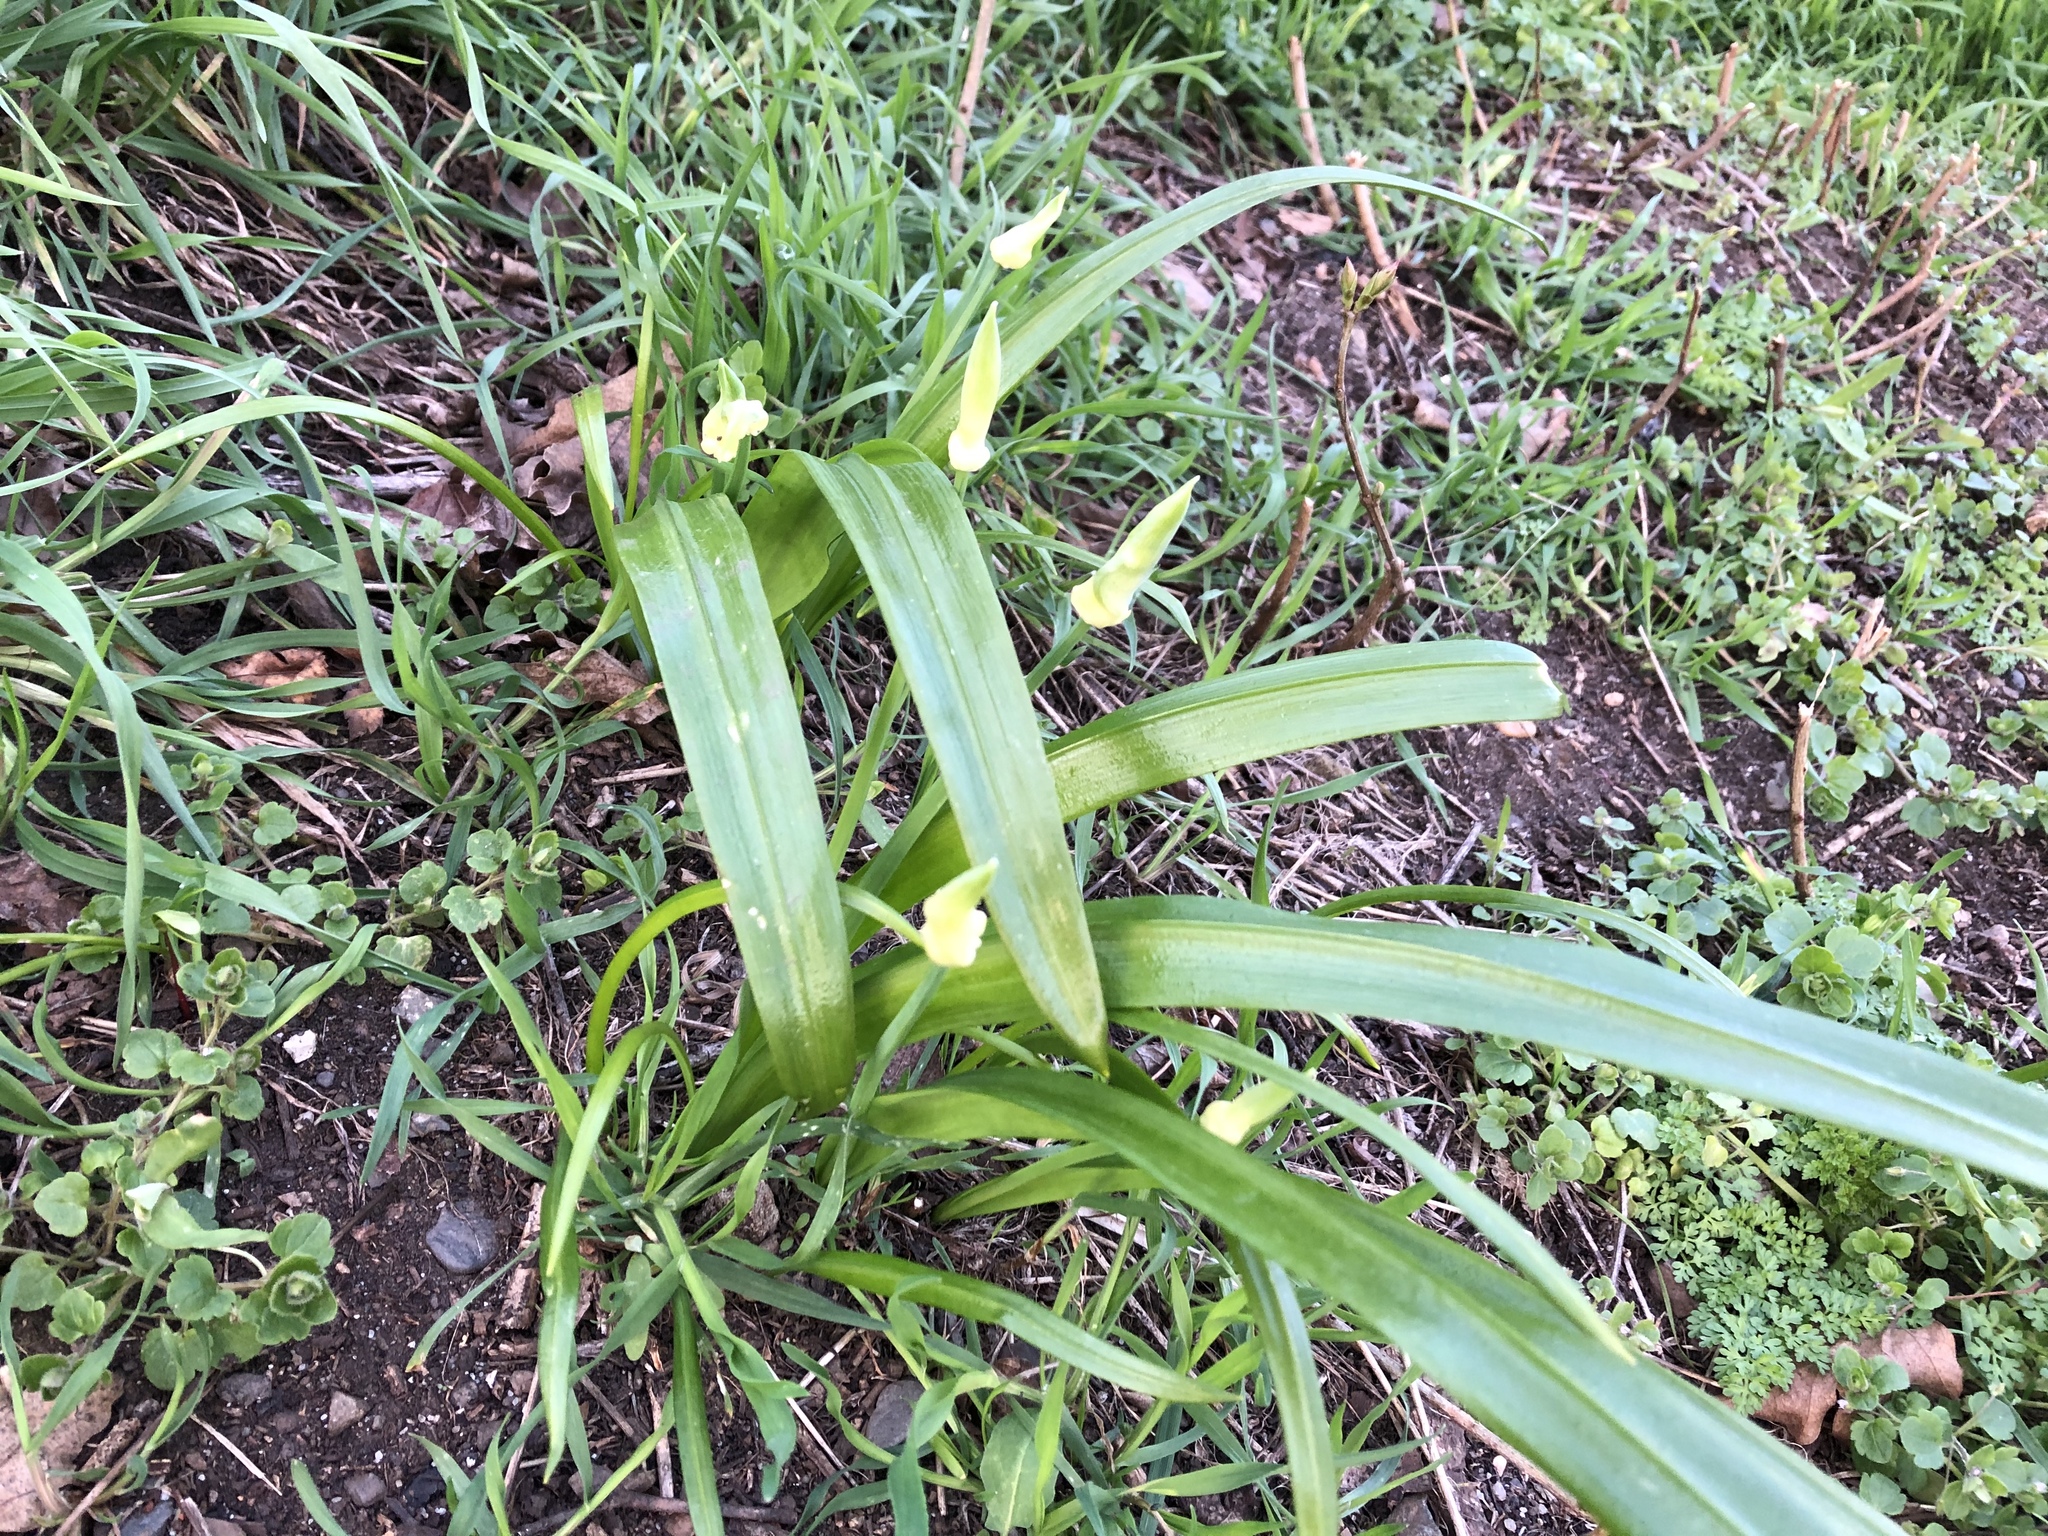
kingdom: Plantae
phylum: Tracheophyta
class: Liliopsida
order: Asparagales
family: Amaryllidaceae
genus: Allium
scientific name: Allium paradoxum
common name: Few-flowered garlic
